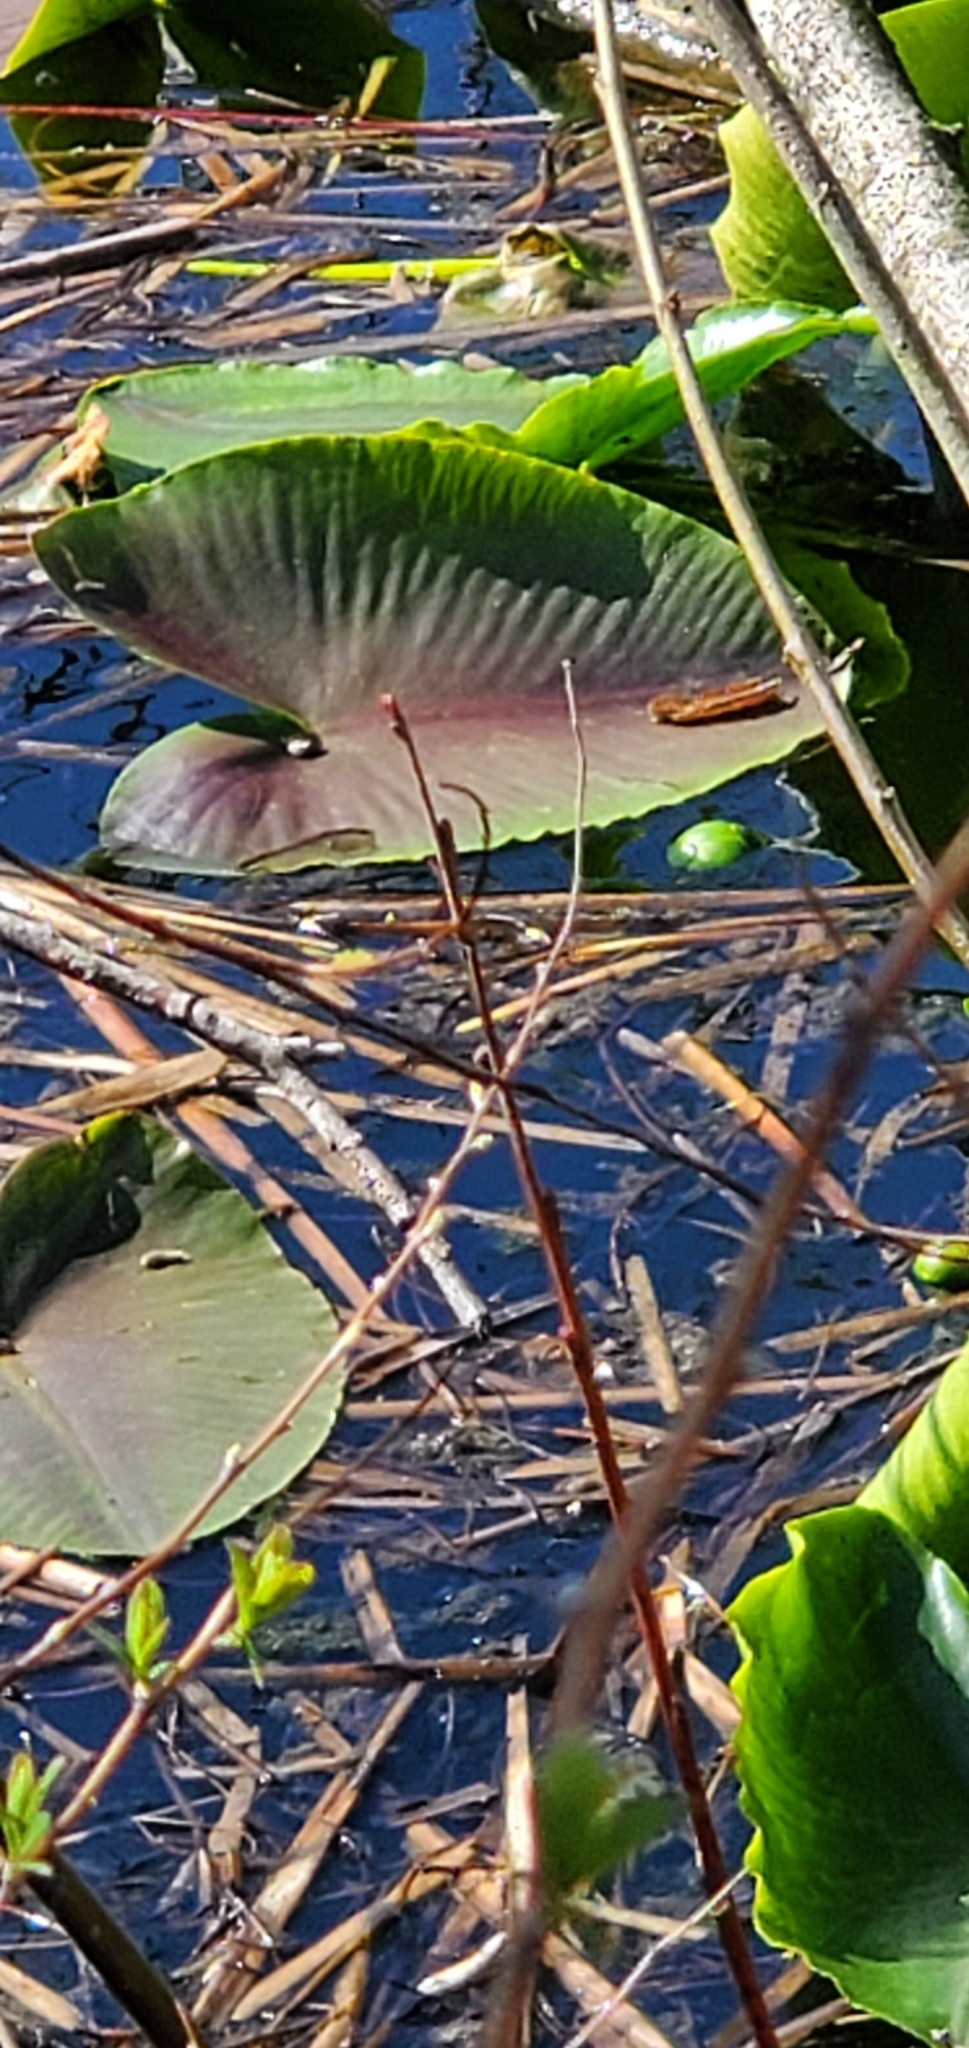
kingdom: Plantae
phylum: Tracheophyta
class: Magnoliopsida
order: Nymphaeales
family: Nymphaeaceae
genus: Nuphar
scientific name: Nuphar polysepala
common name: Rocky mountain cow-lily
